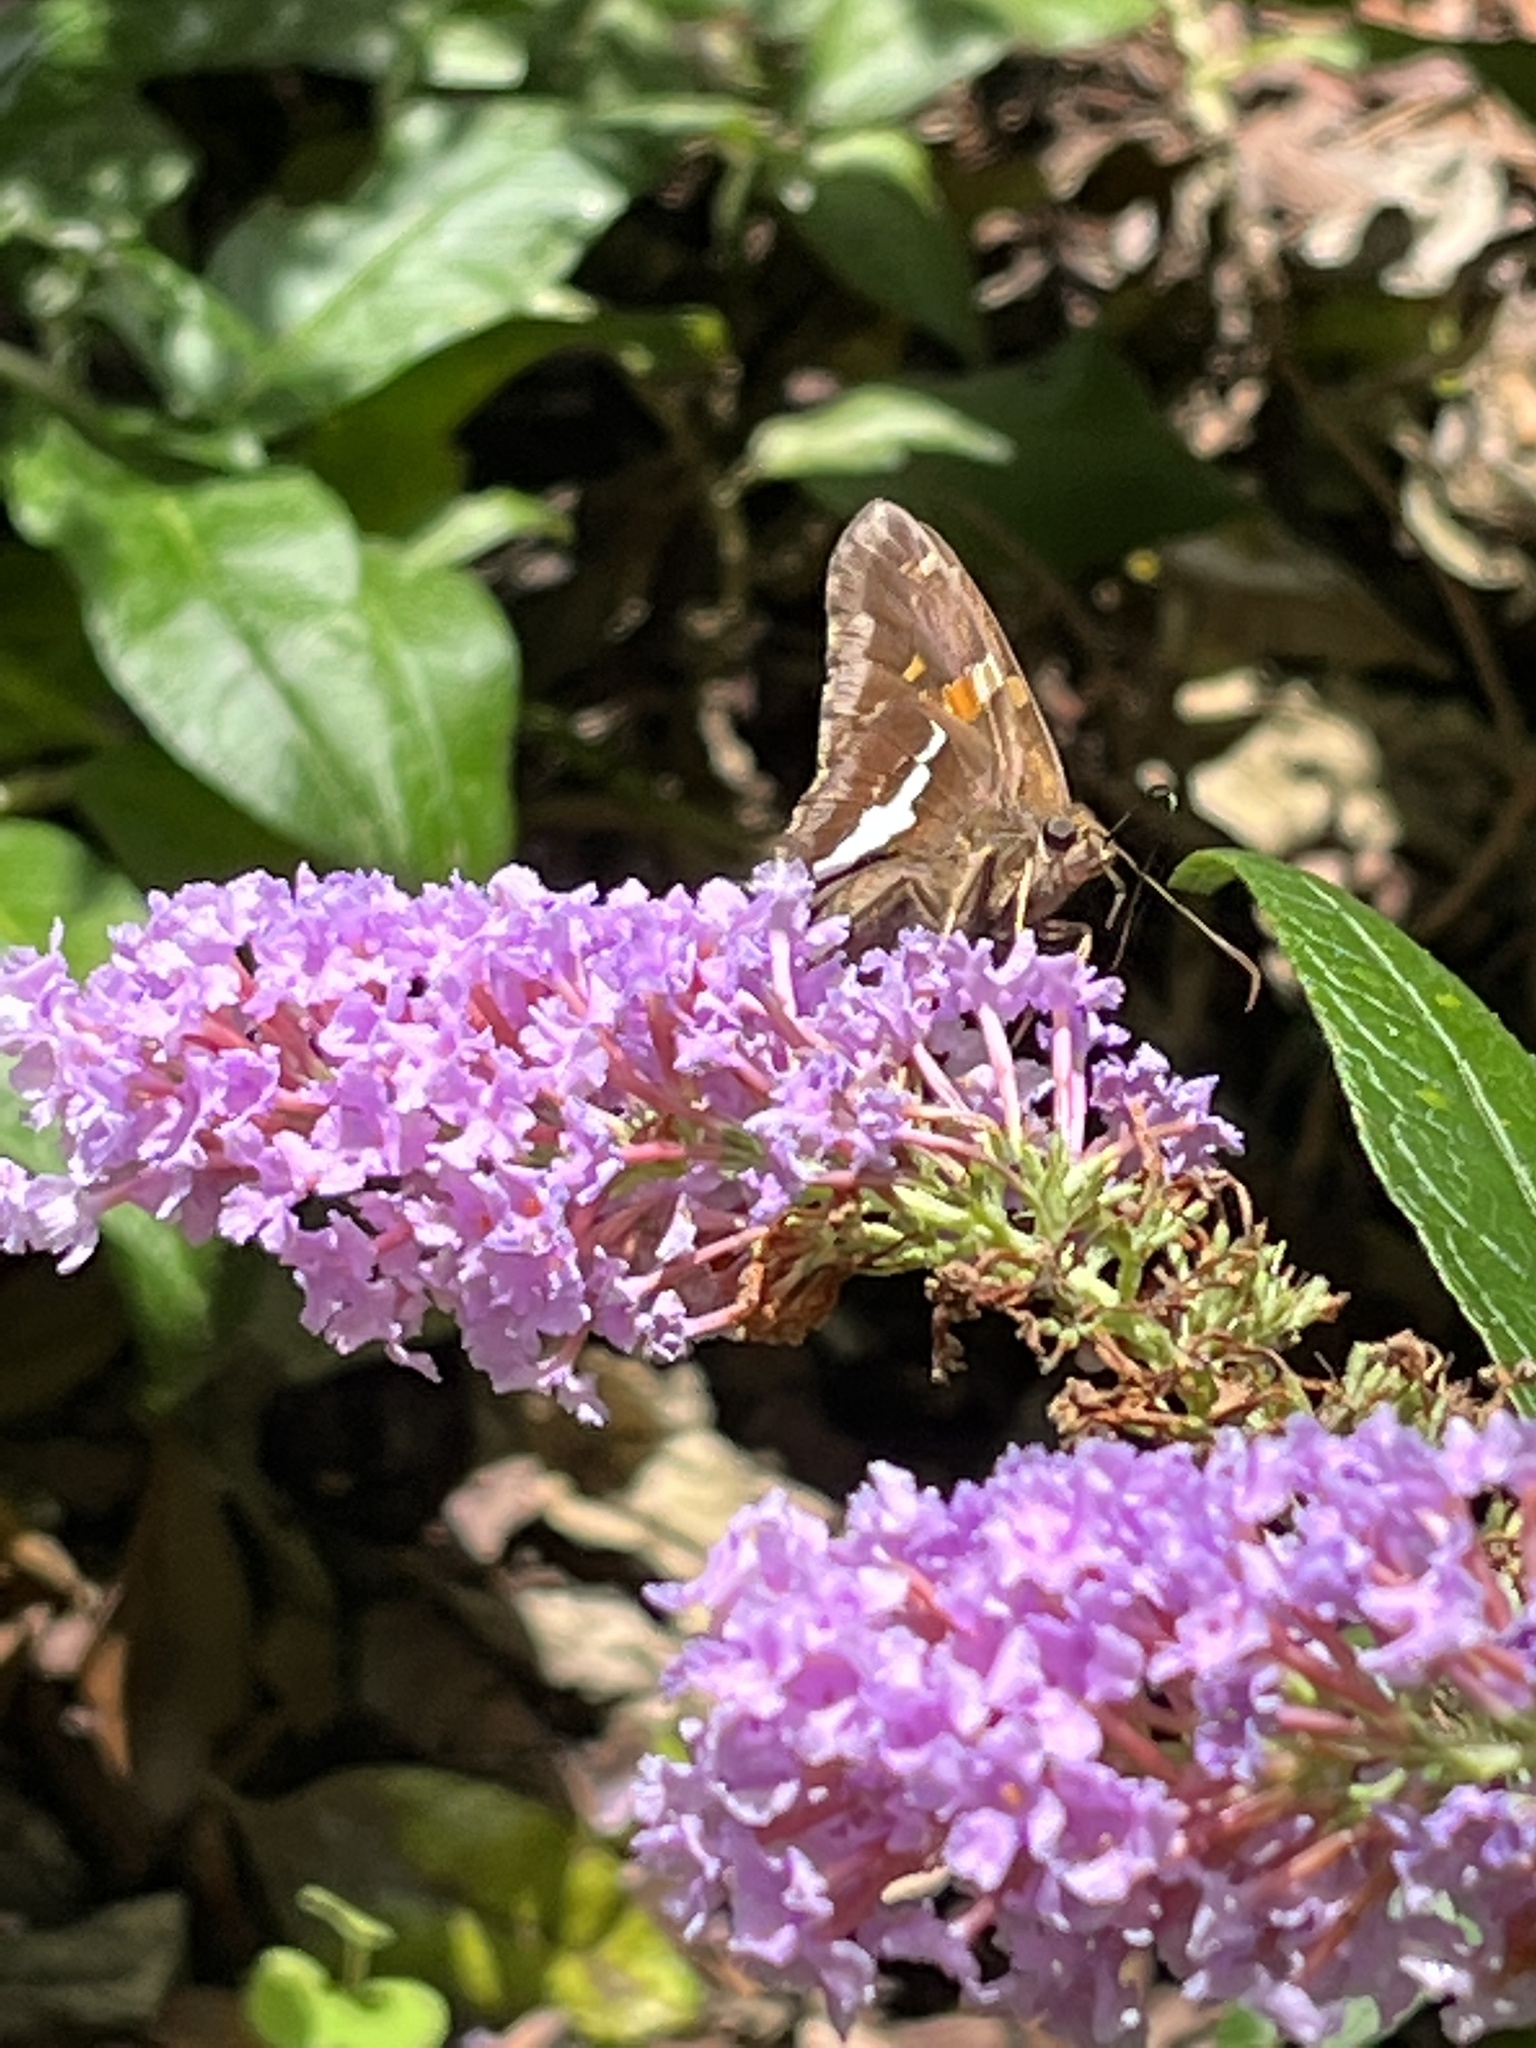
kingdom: Animalia
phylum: Arthropoda
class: Insecta
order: Lepidoptera
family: Hesperiidae
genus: Epargyreus
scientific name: Epargyreus clarus
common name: Silver-spotted skipper
